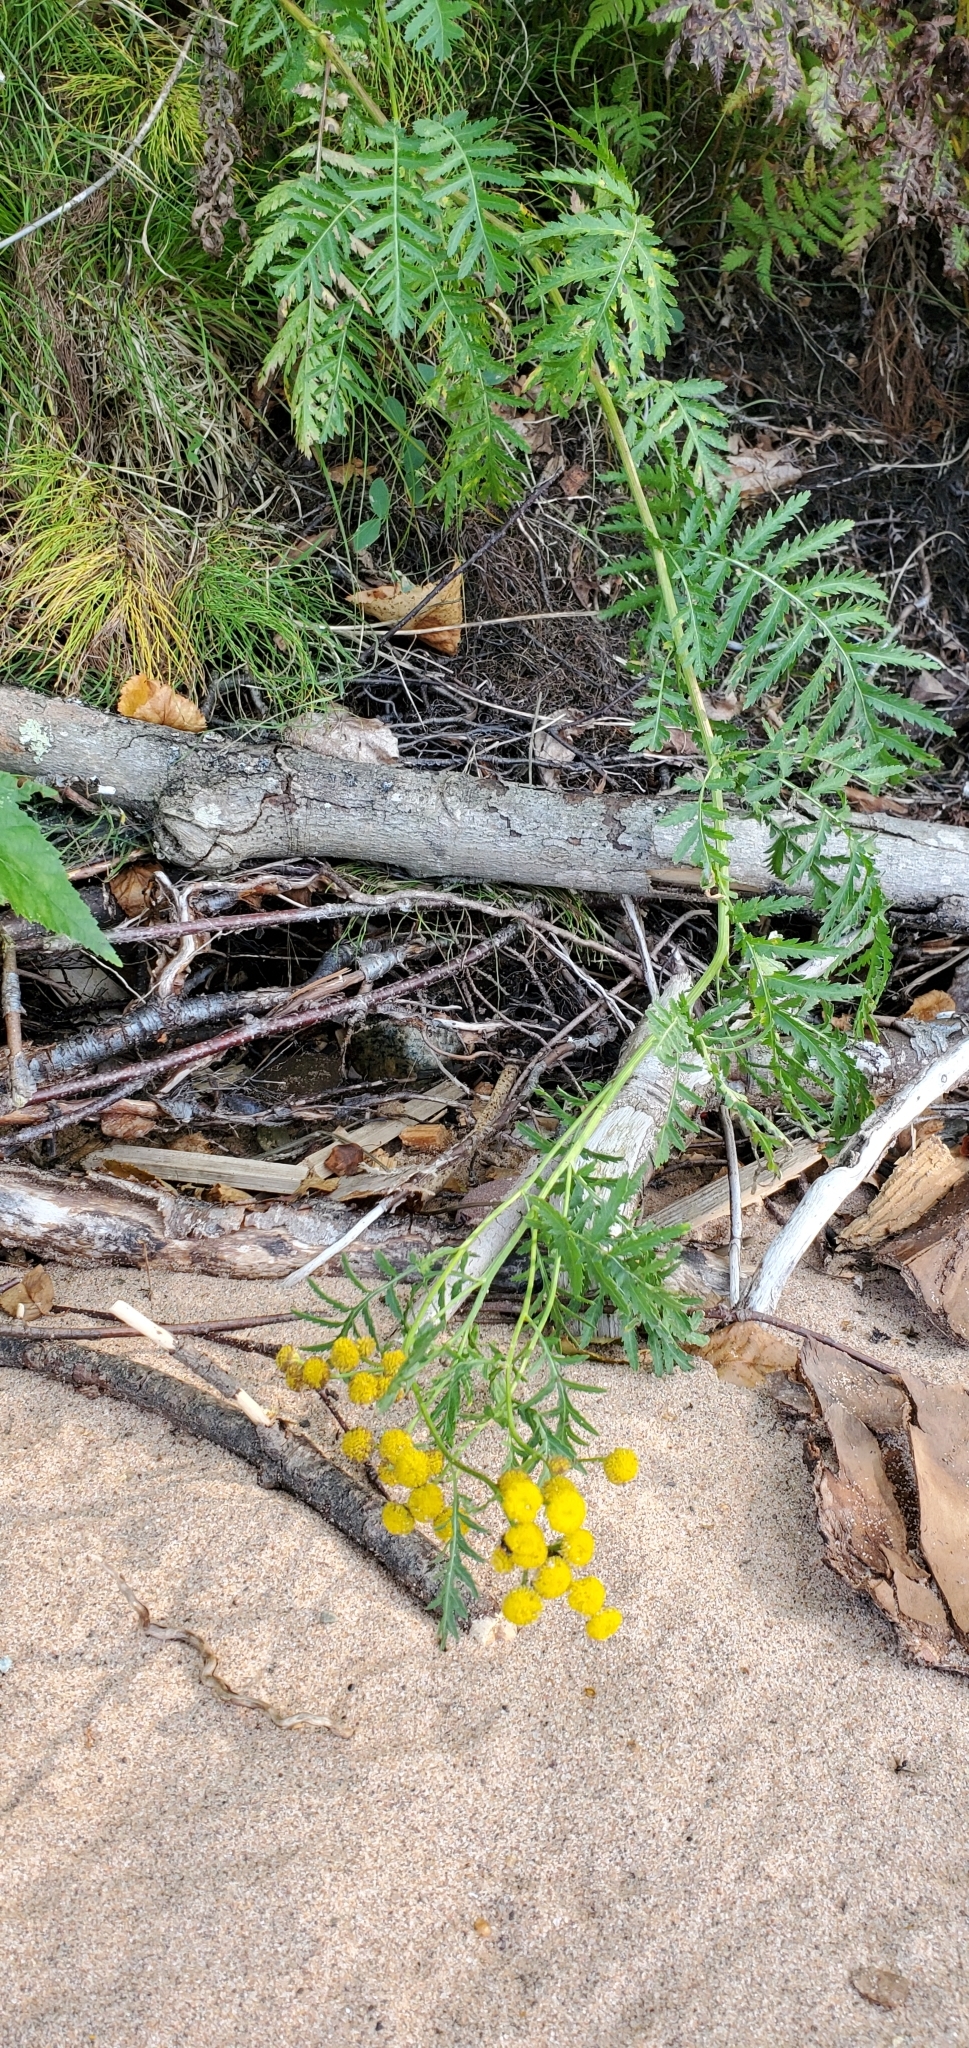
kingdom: Plantae
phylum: Tracheophyta
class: Magnoliopsida
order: Asterales
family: Asteraceae
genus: Tanacetum
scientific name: Tanacetum vulgare
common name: Common tansy
